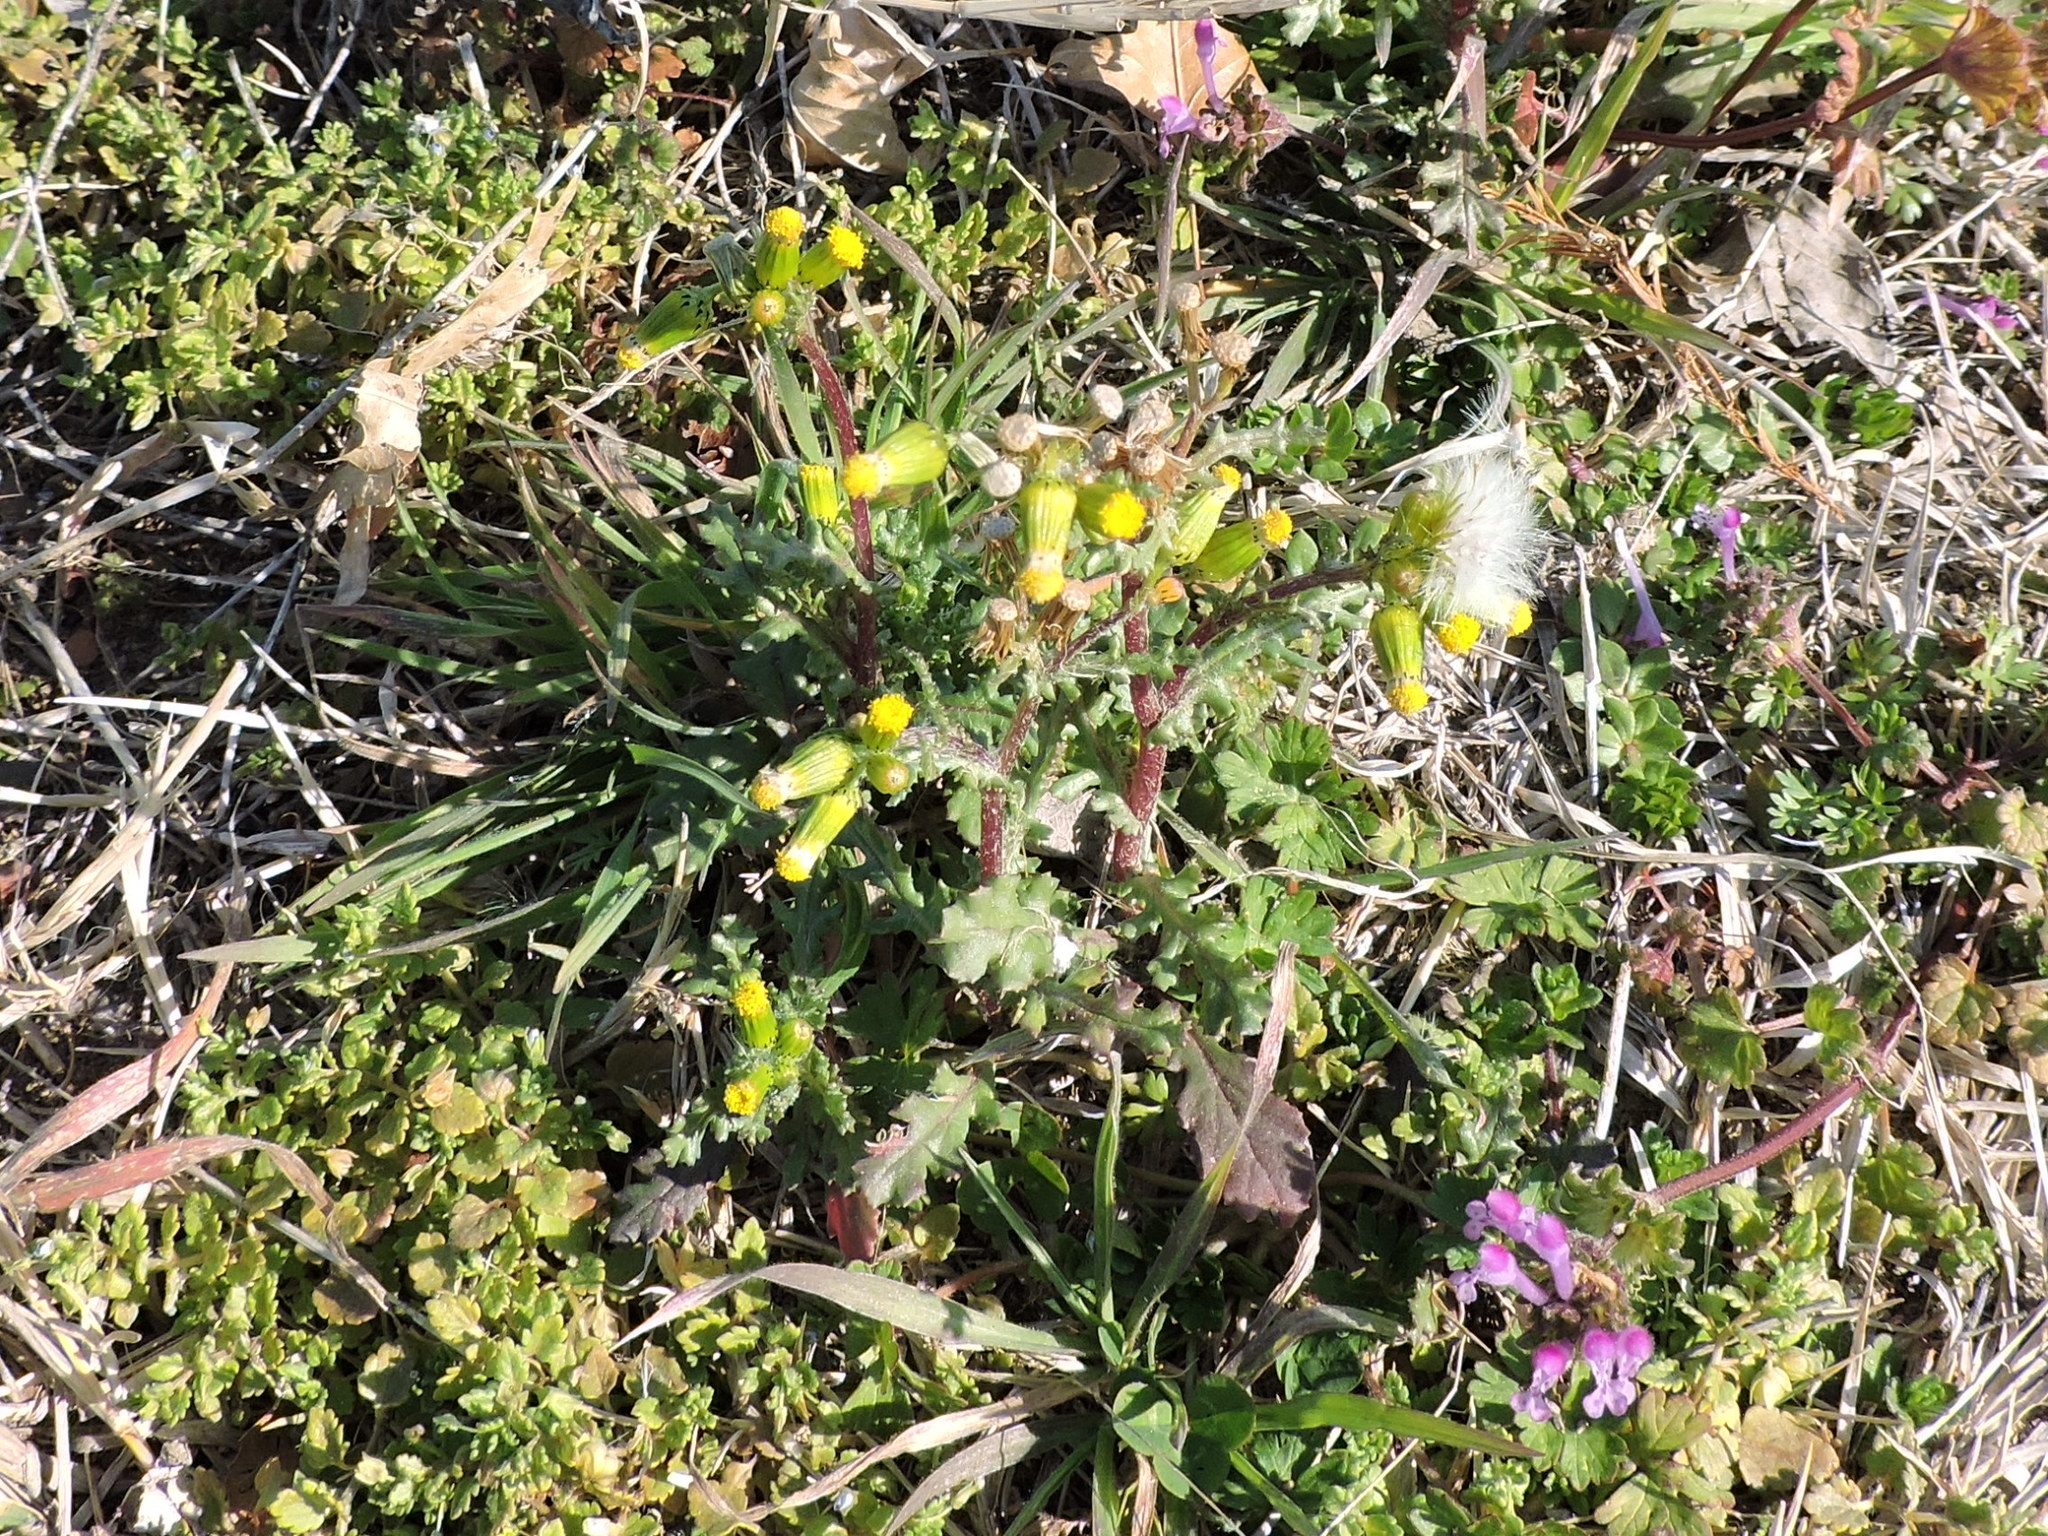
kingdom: Plantae
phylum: Tracheophyta
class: Magnoliopsida
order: Asterales
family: Asteraceae
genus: Senecio
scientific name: Senecio vulgaris
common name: Old-man-in-the-spring
